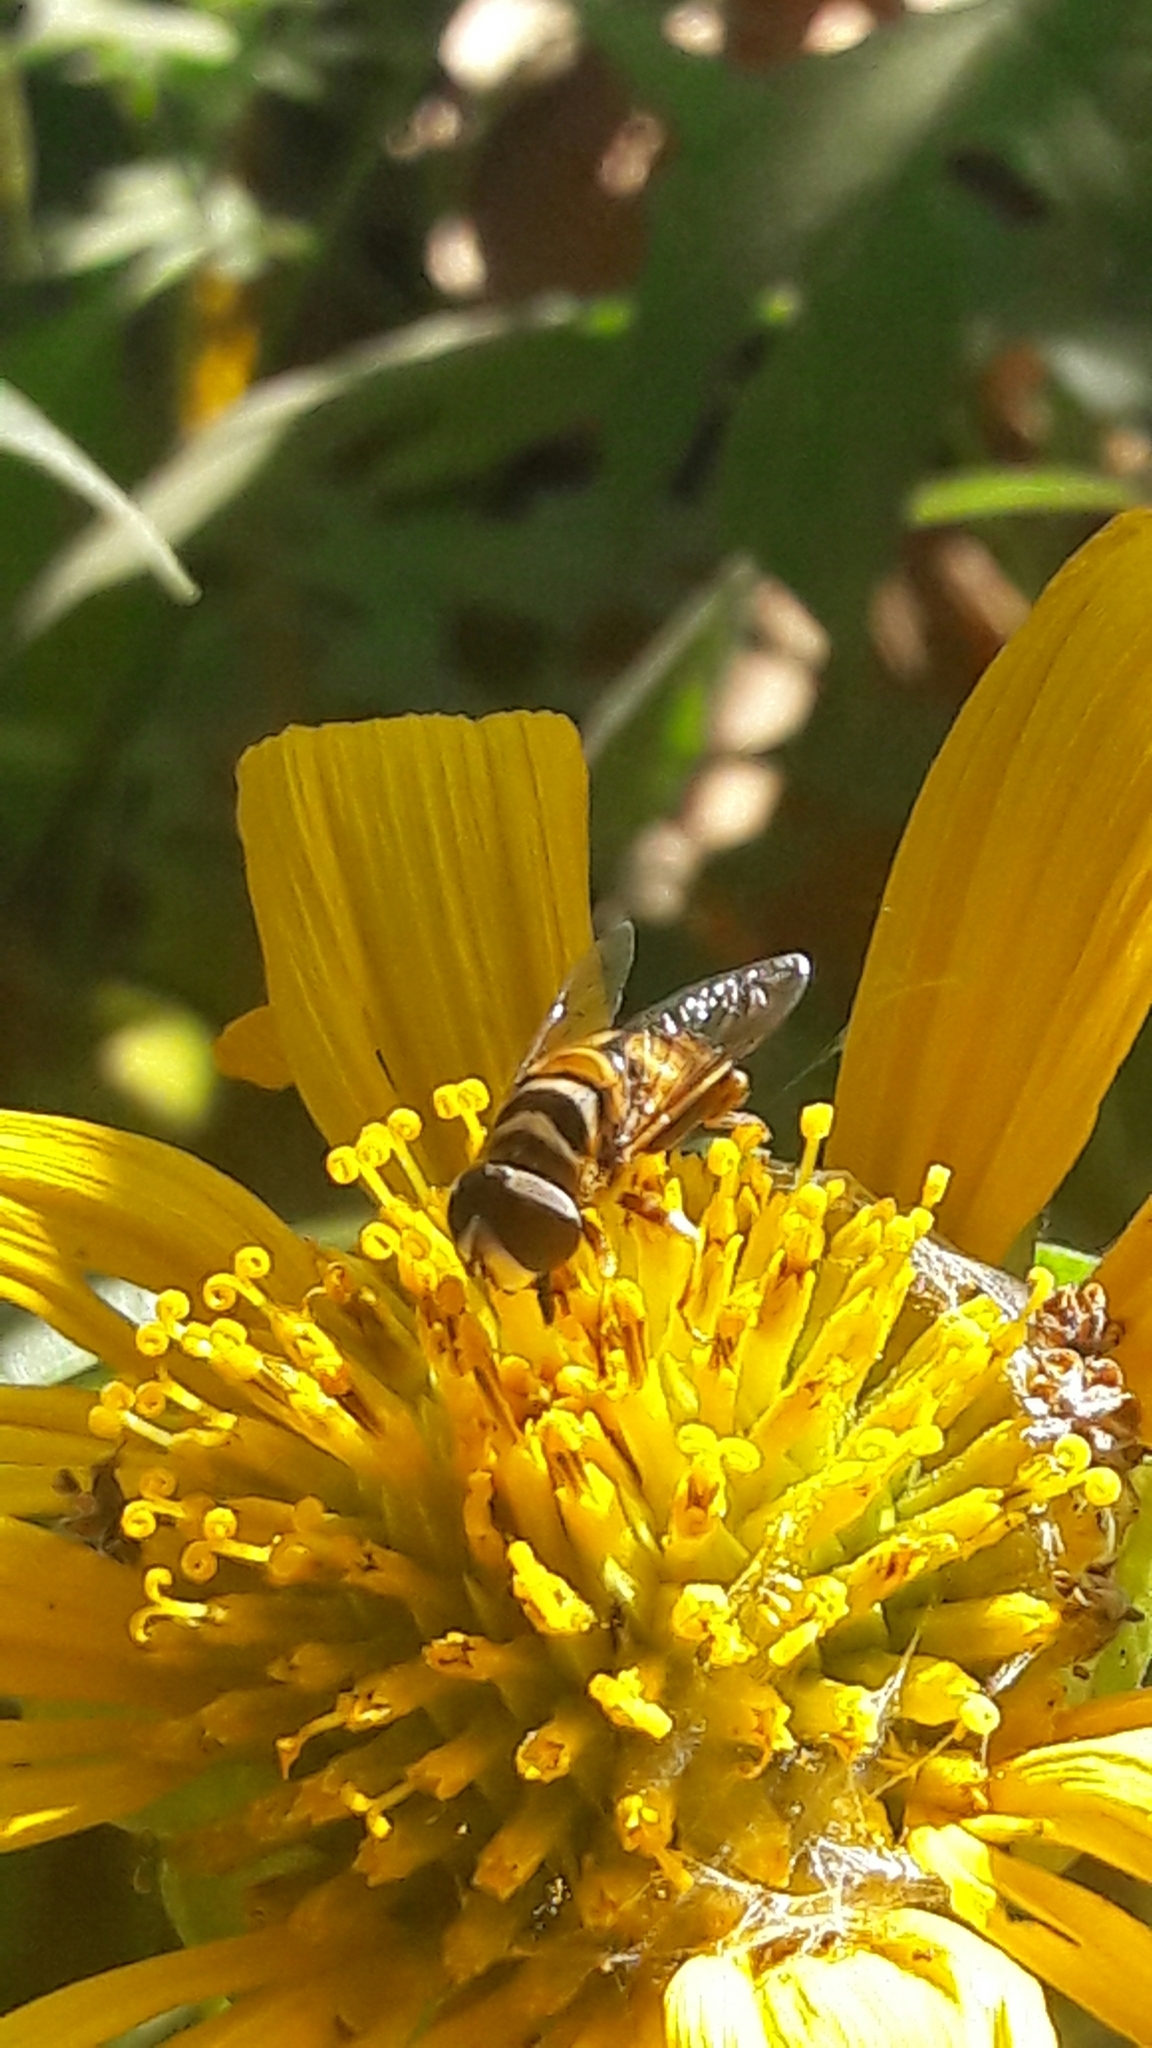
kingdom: Animalia
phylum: Arthropoda
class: Insecta
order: Diptera
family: Syrphidae
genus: Palpada
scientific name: Palpada vinetorum
